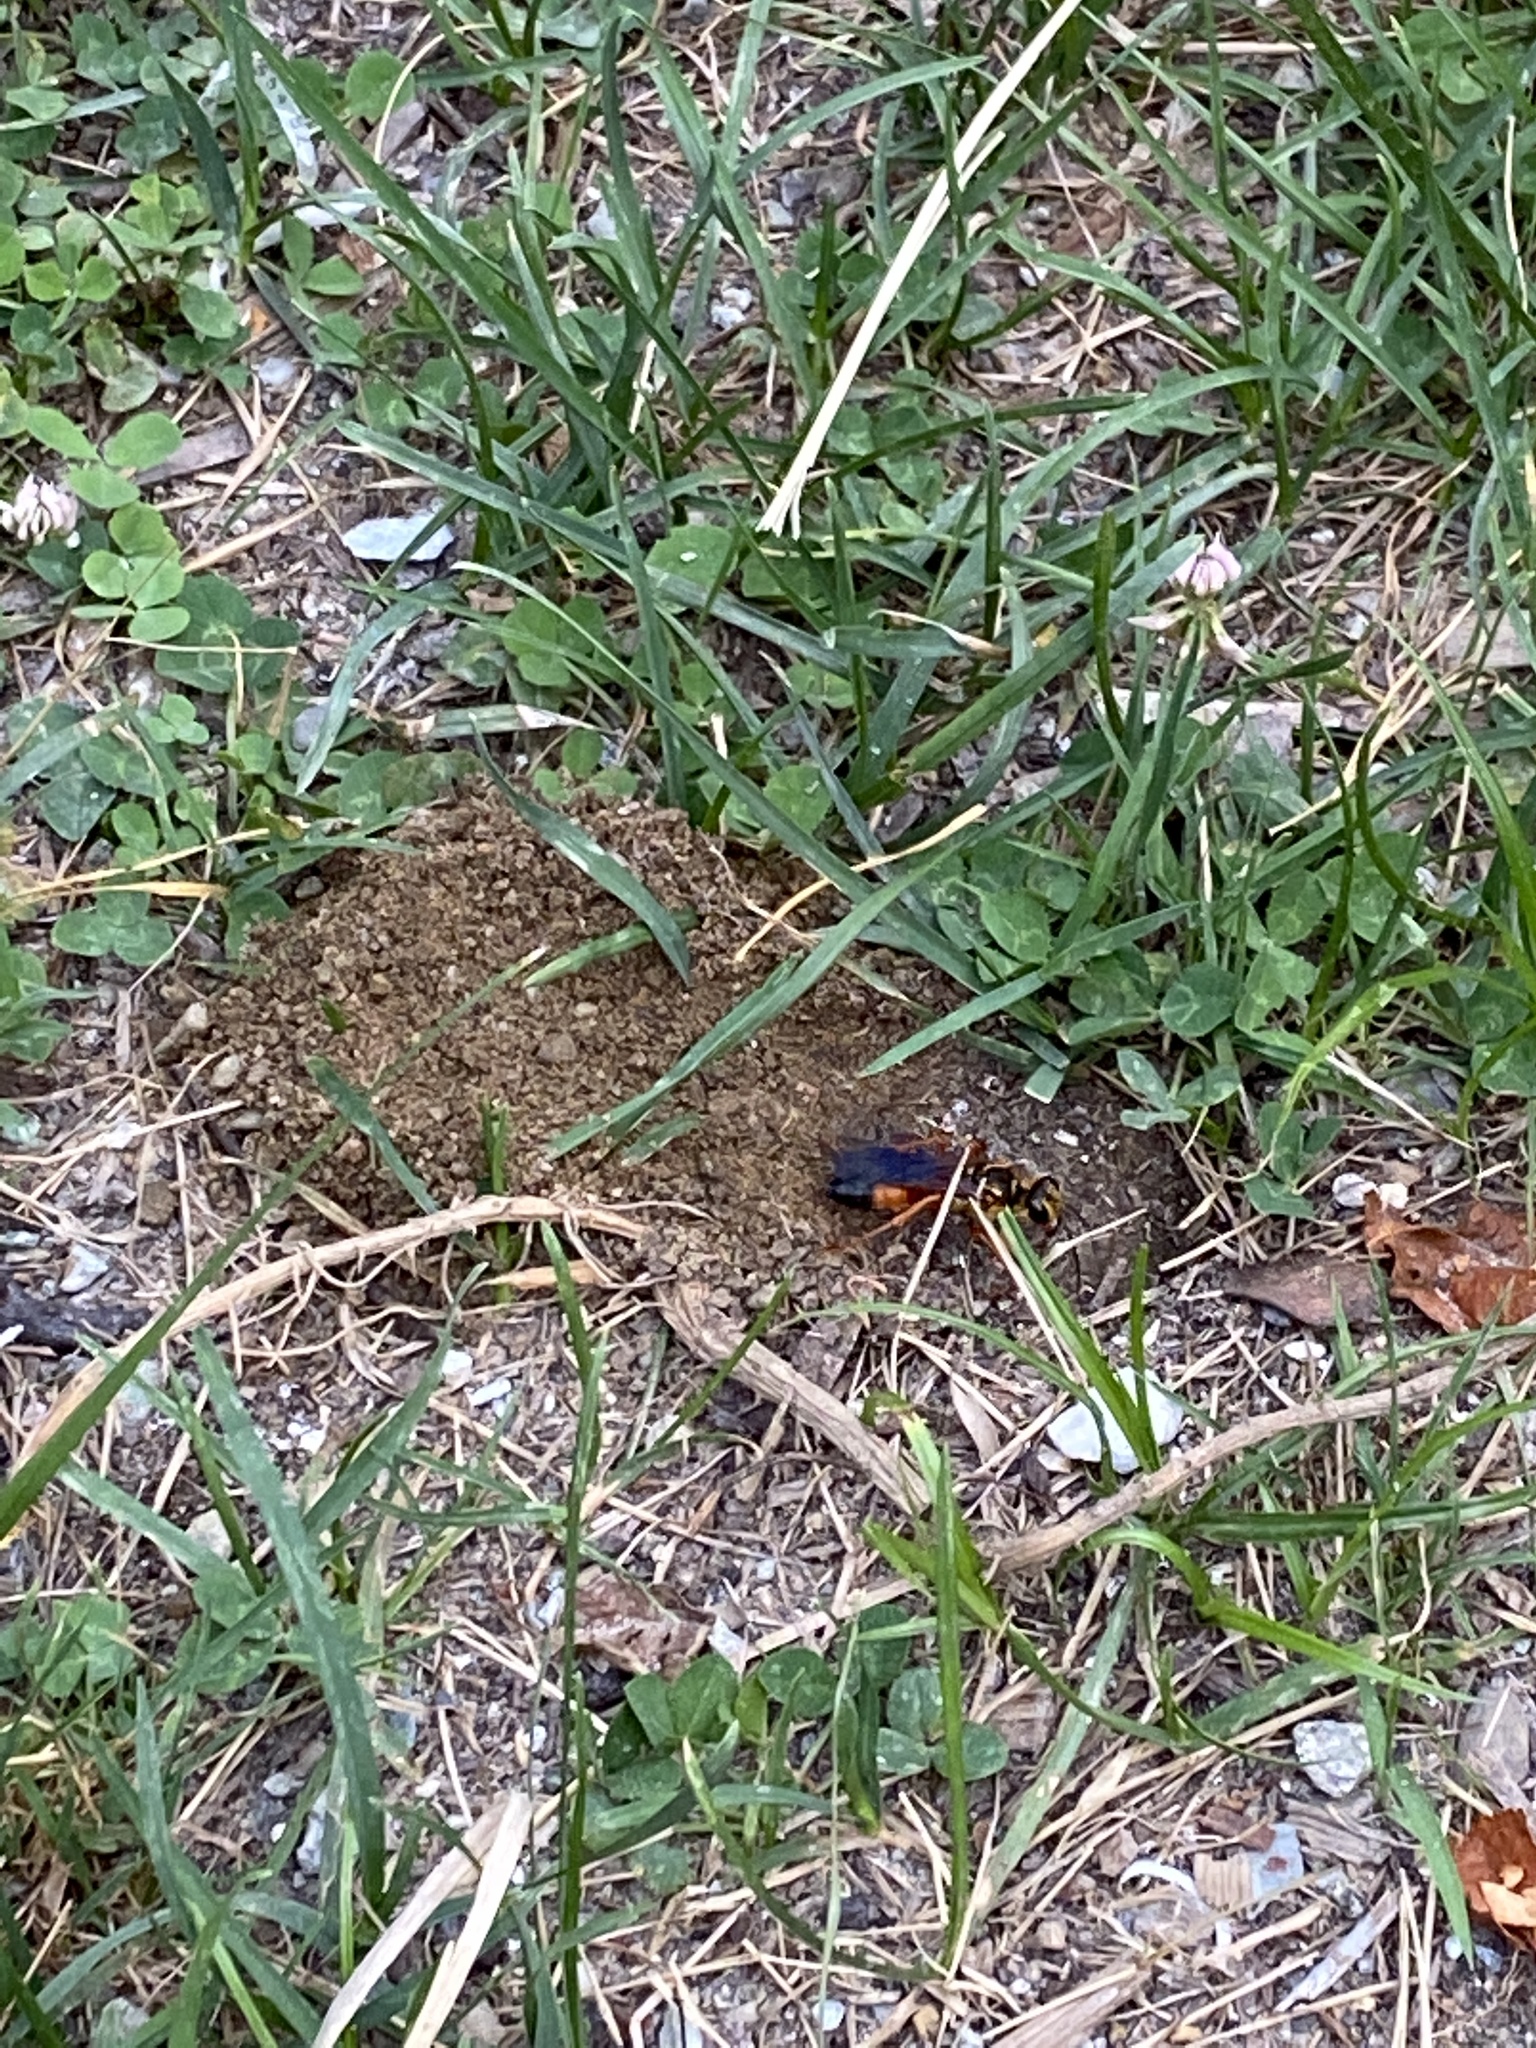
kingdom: Animalia
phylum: Arthropoda
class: Insecta
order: Hymenoptera
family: Sphecidae
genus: Sphex
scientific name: Sphex ichneumoneus
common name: Great golden digger wasp
